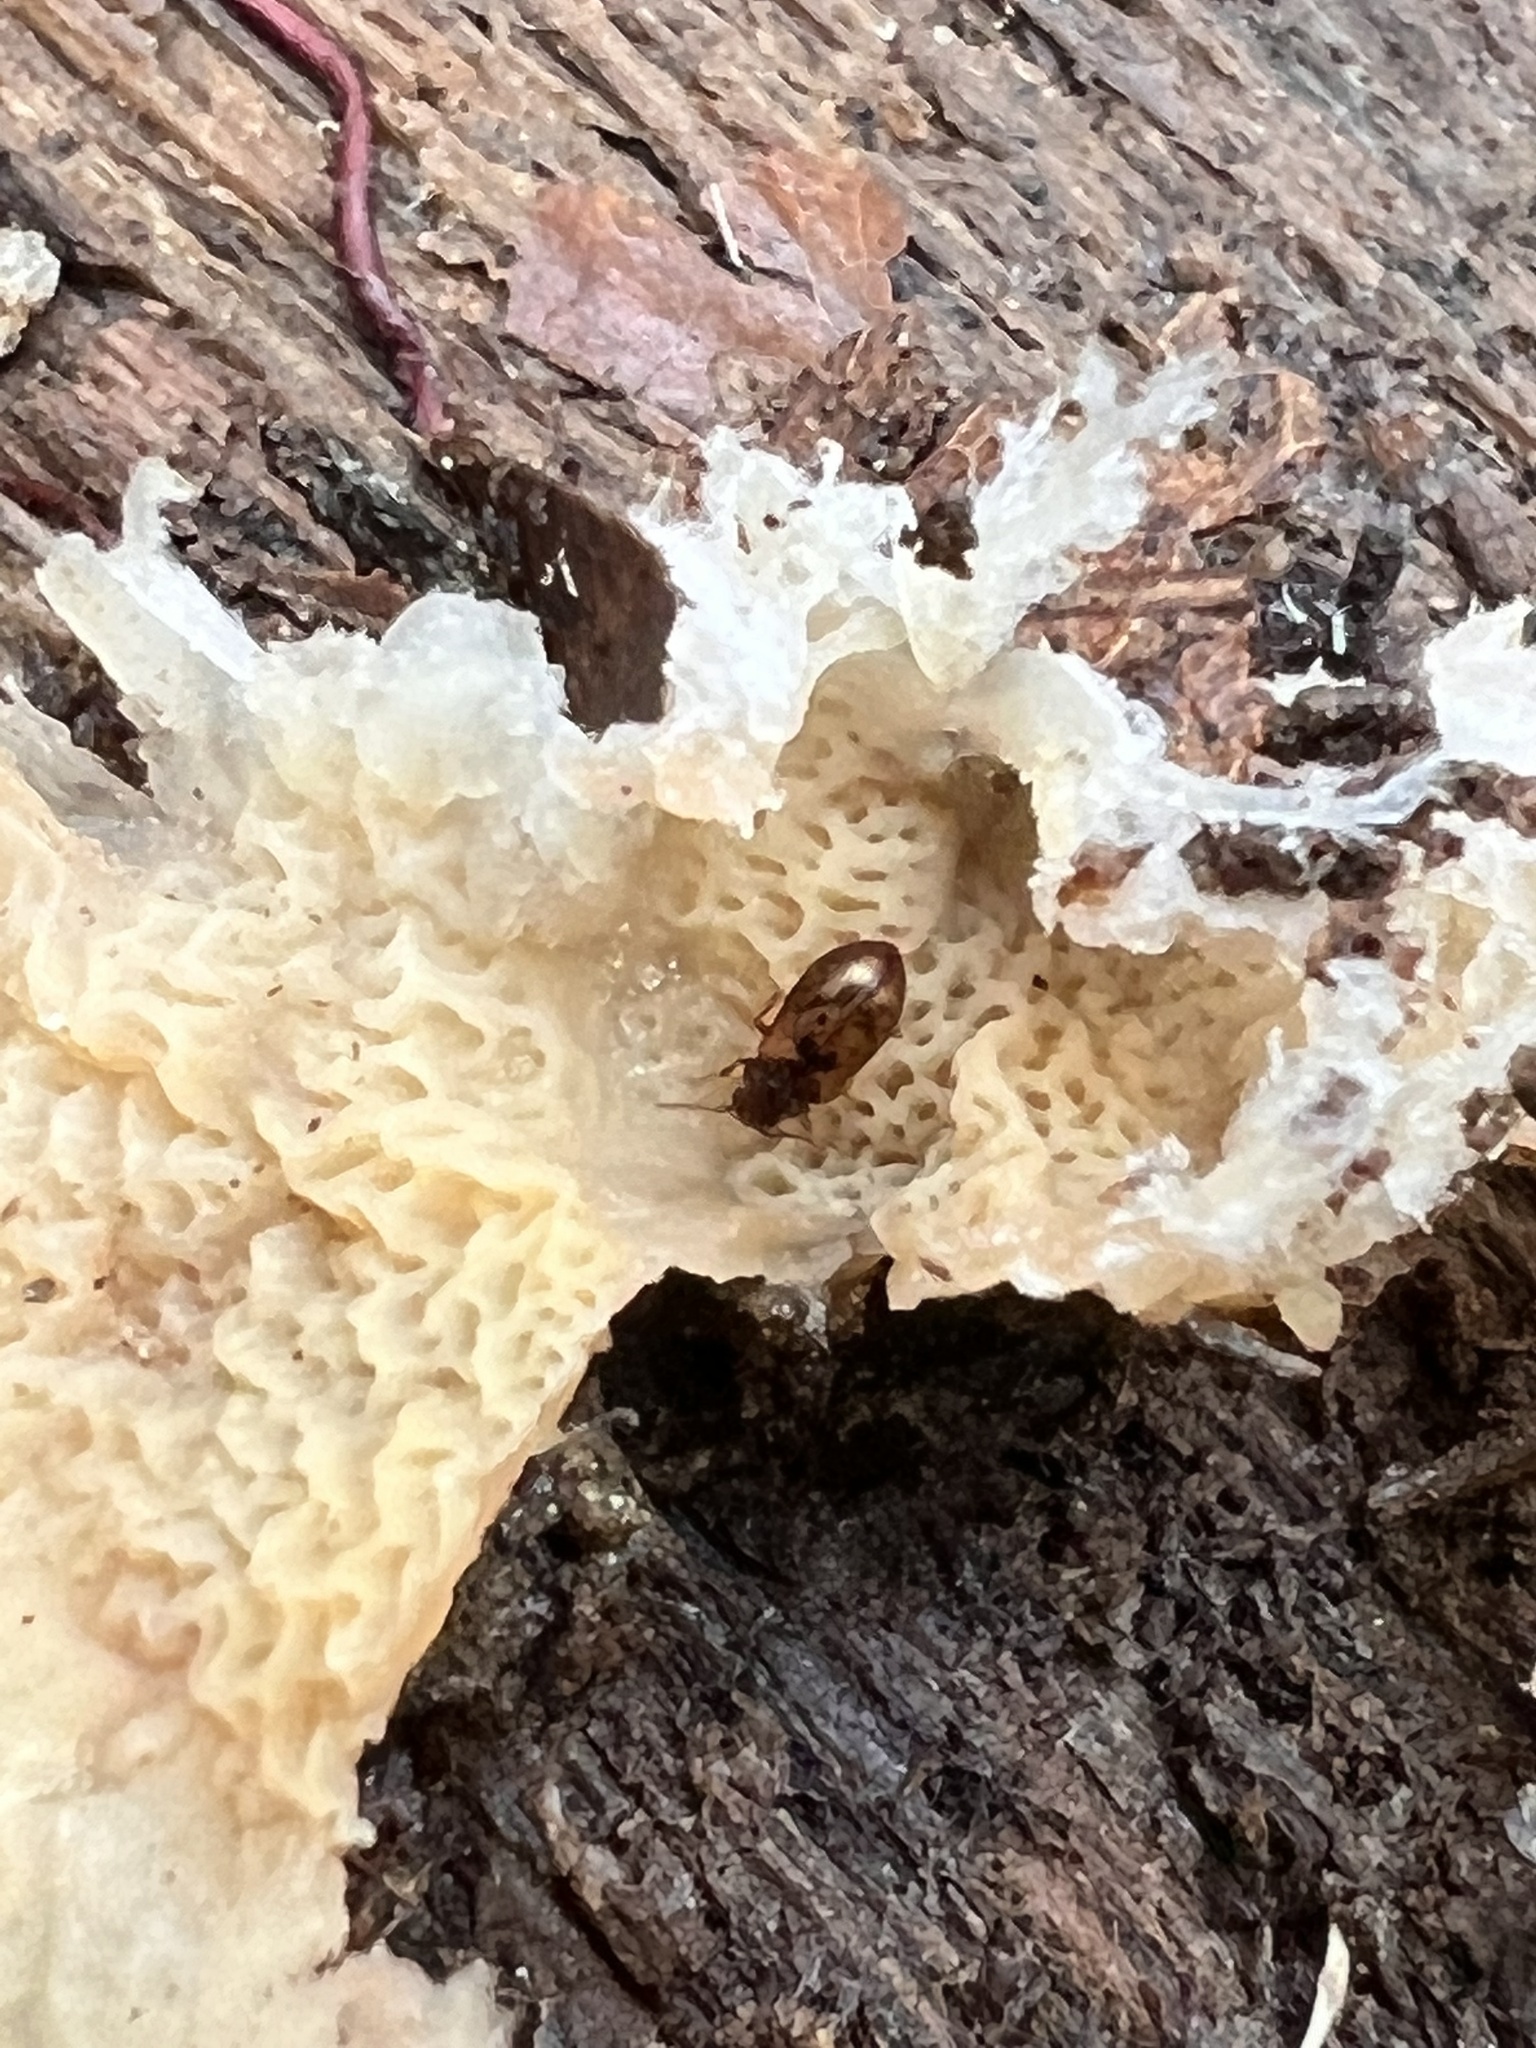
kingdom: Animalia
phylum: Arthropoda
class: Insecta
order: Coleoptera
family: Derodontidae
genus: Derodontus
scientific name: Derodontus esotericus
